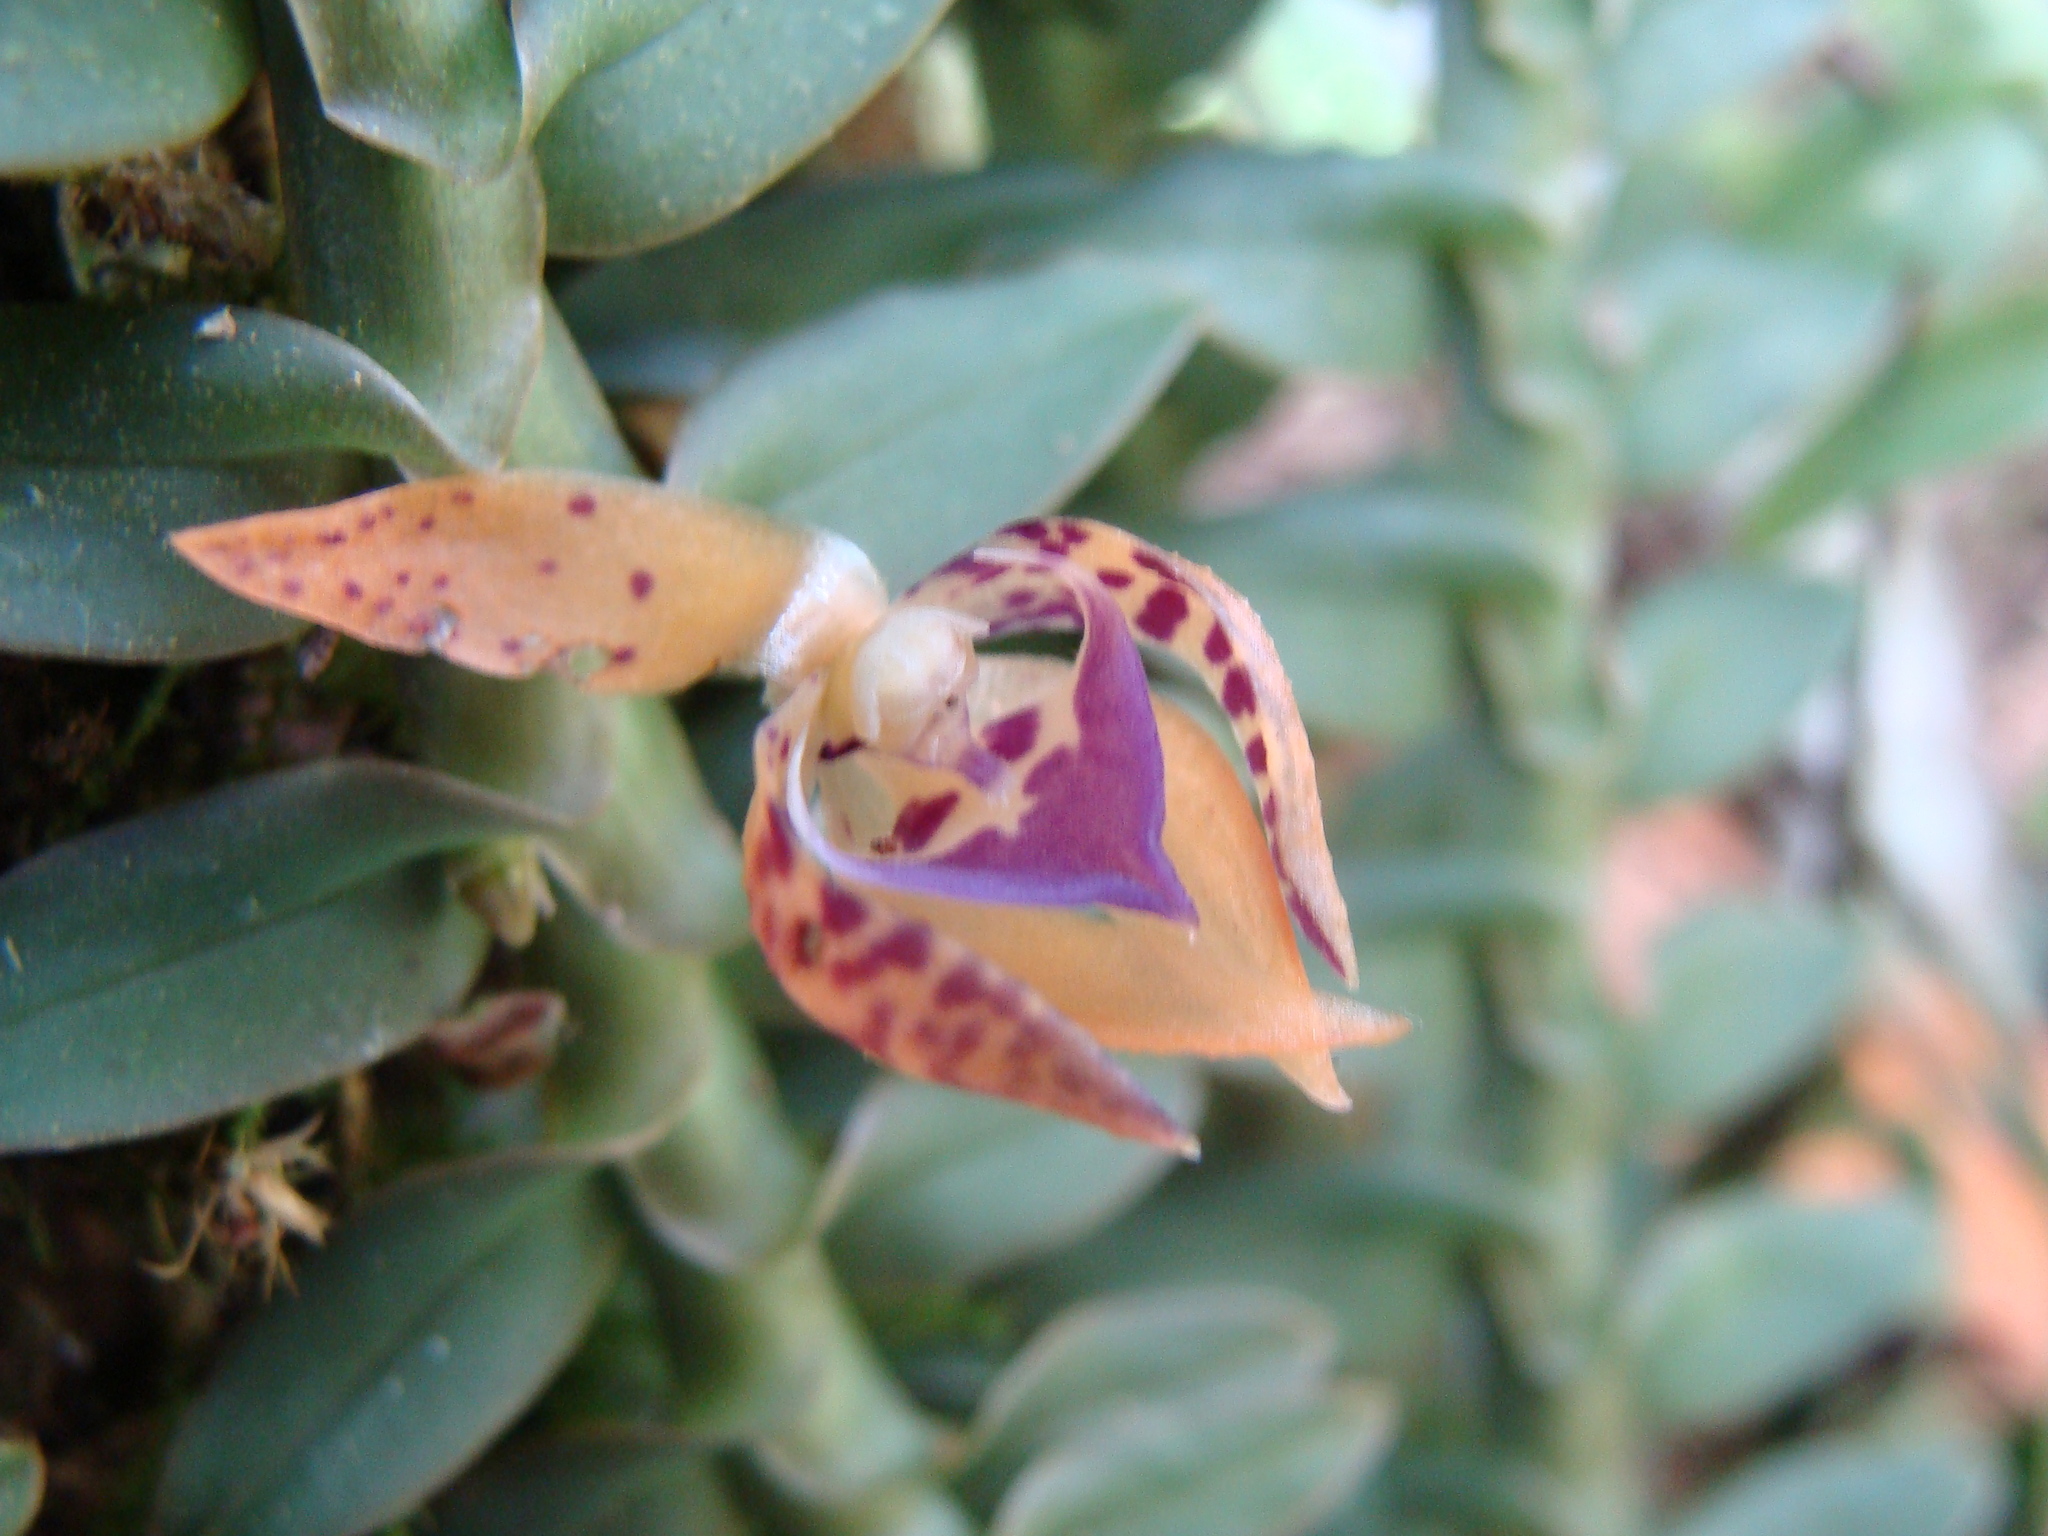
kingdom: Plantae
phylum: Tracheophyta
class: Liliopsida
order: Asparagales
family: Orchidaceae
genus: Dichaea
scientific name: Dichaea muricatoides
